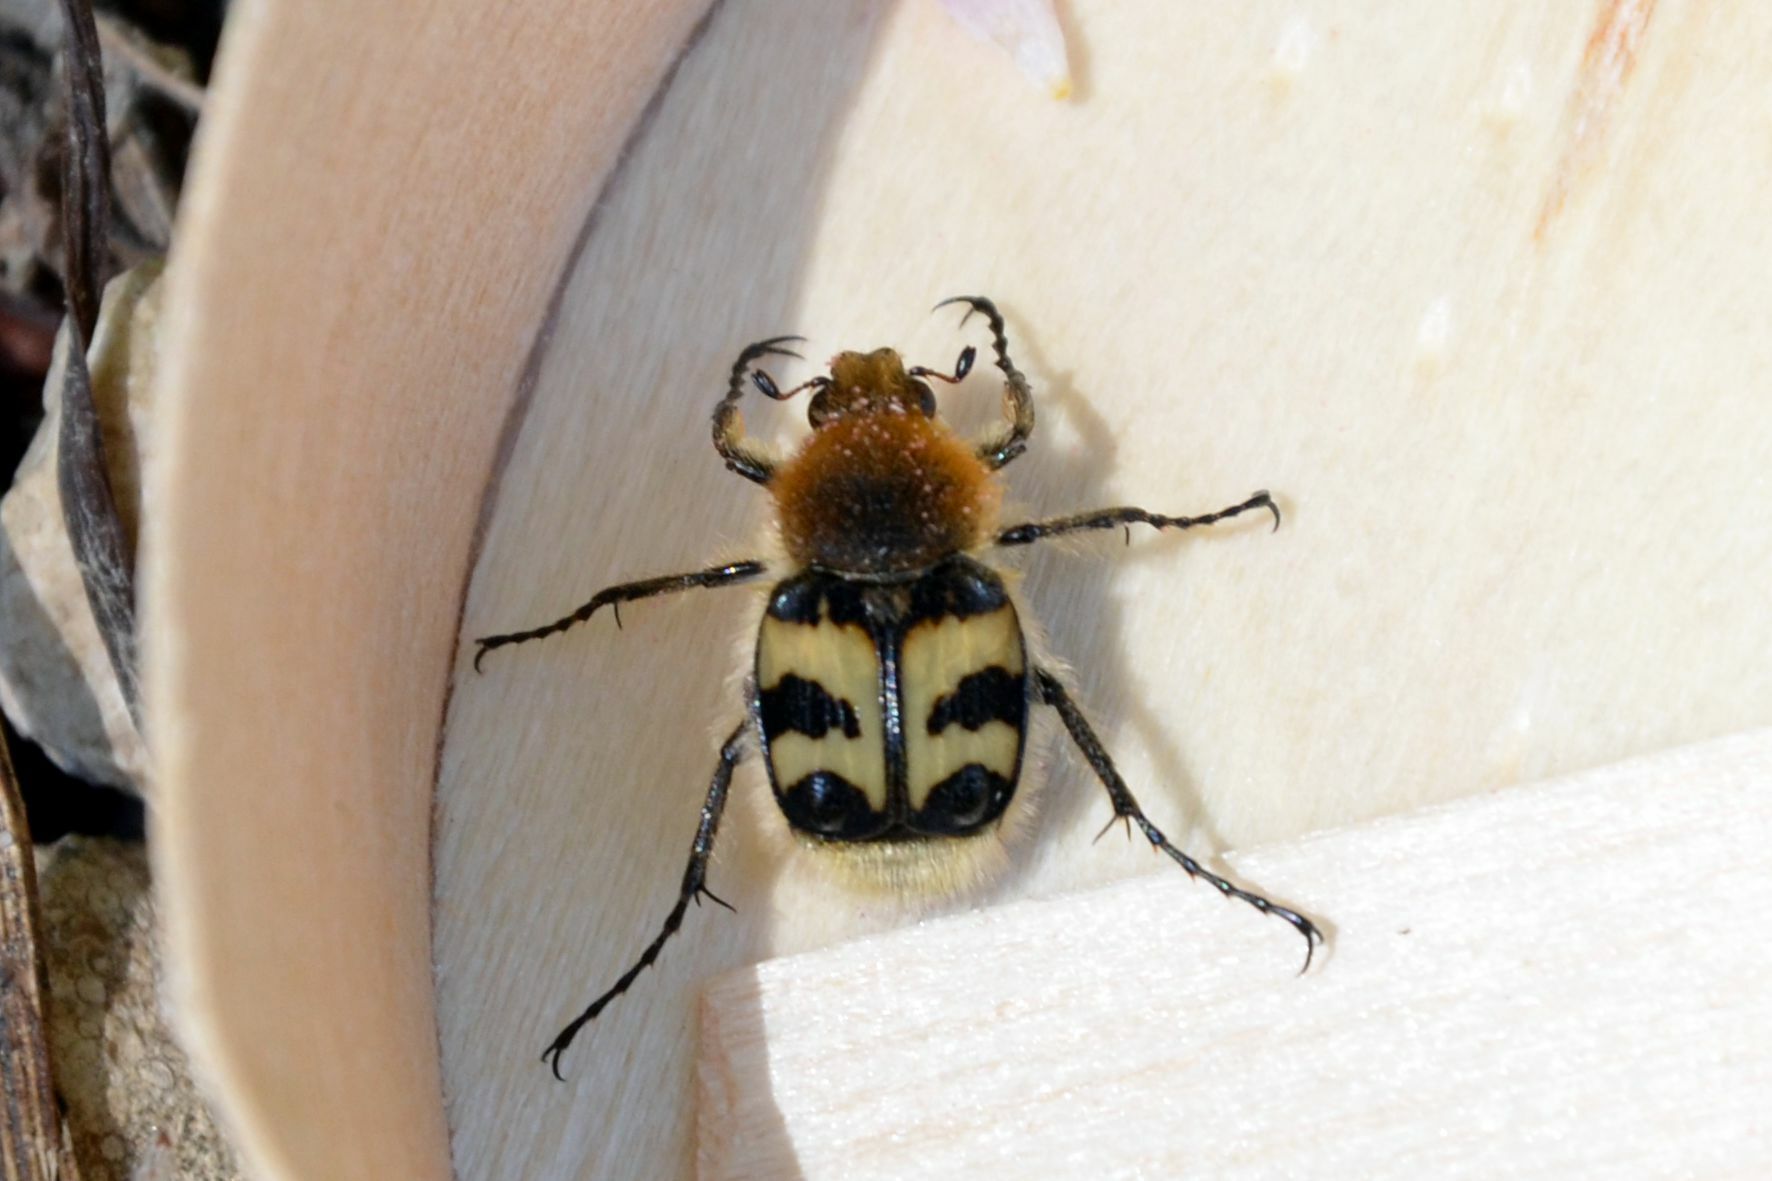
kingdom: Animalia
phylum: Arthropoda
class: Insecta
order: Coleoptera
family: Scarabaeidae
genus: Trichius
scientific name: Trichius fasciatus
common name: Bee beetle
